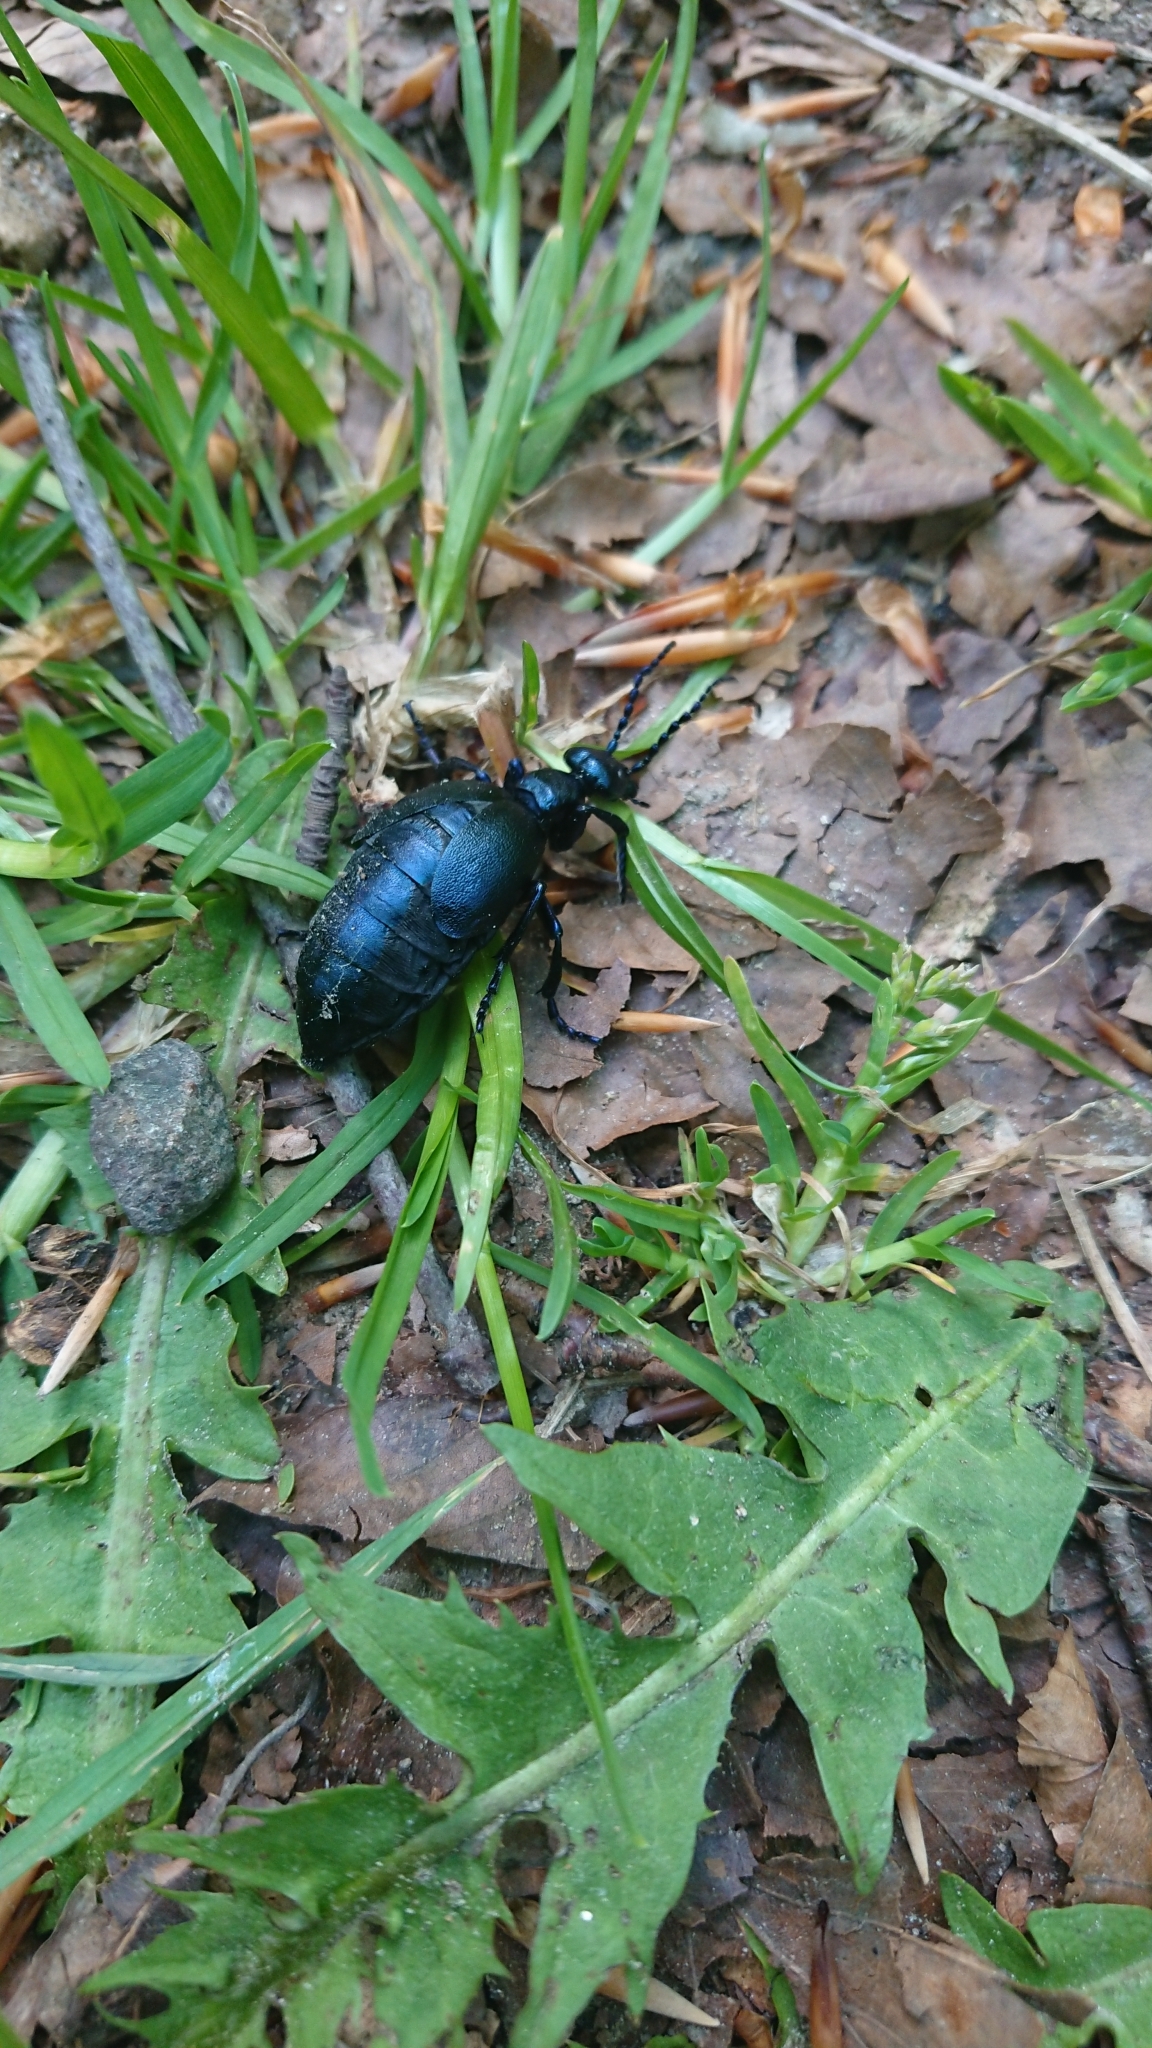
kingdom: Animalia
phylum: Arthropoda
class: Insecta
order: Coleoptera
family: Meloidae
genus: Meloe
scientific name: Meloe violaceus
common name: Violet oil-beetle
